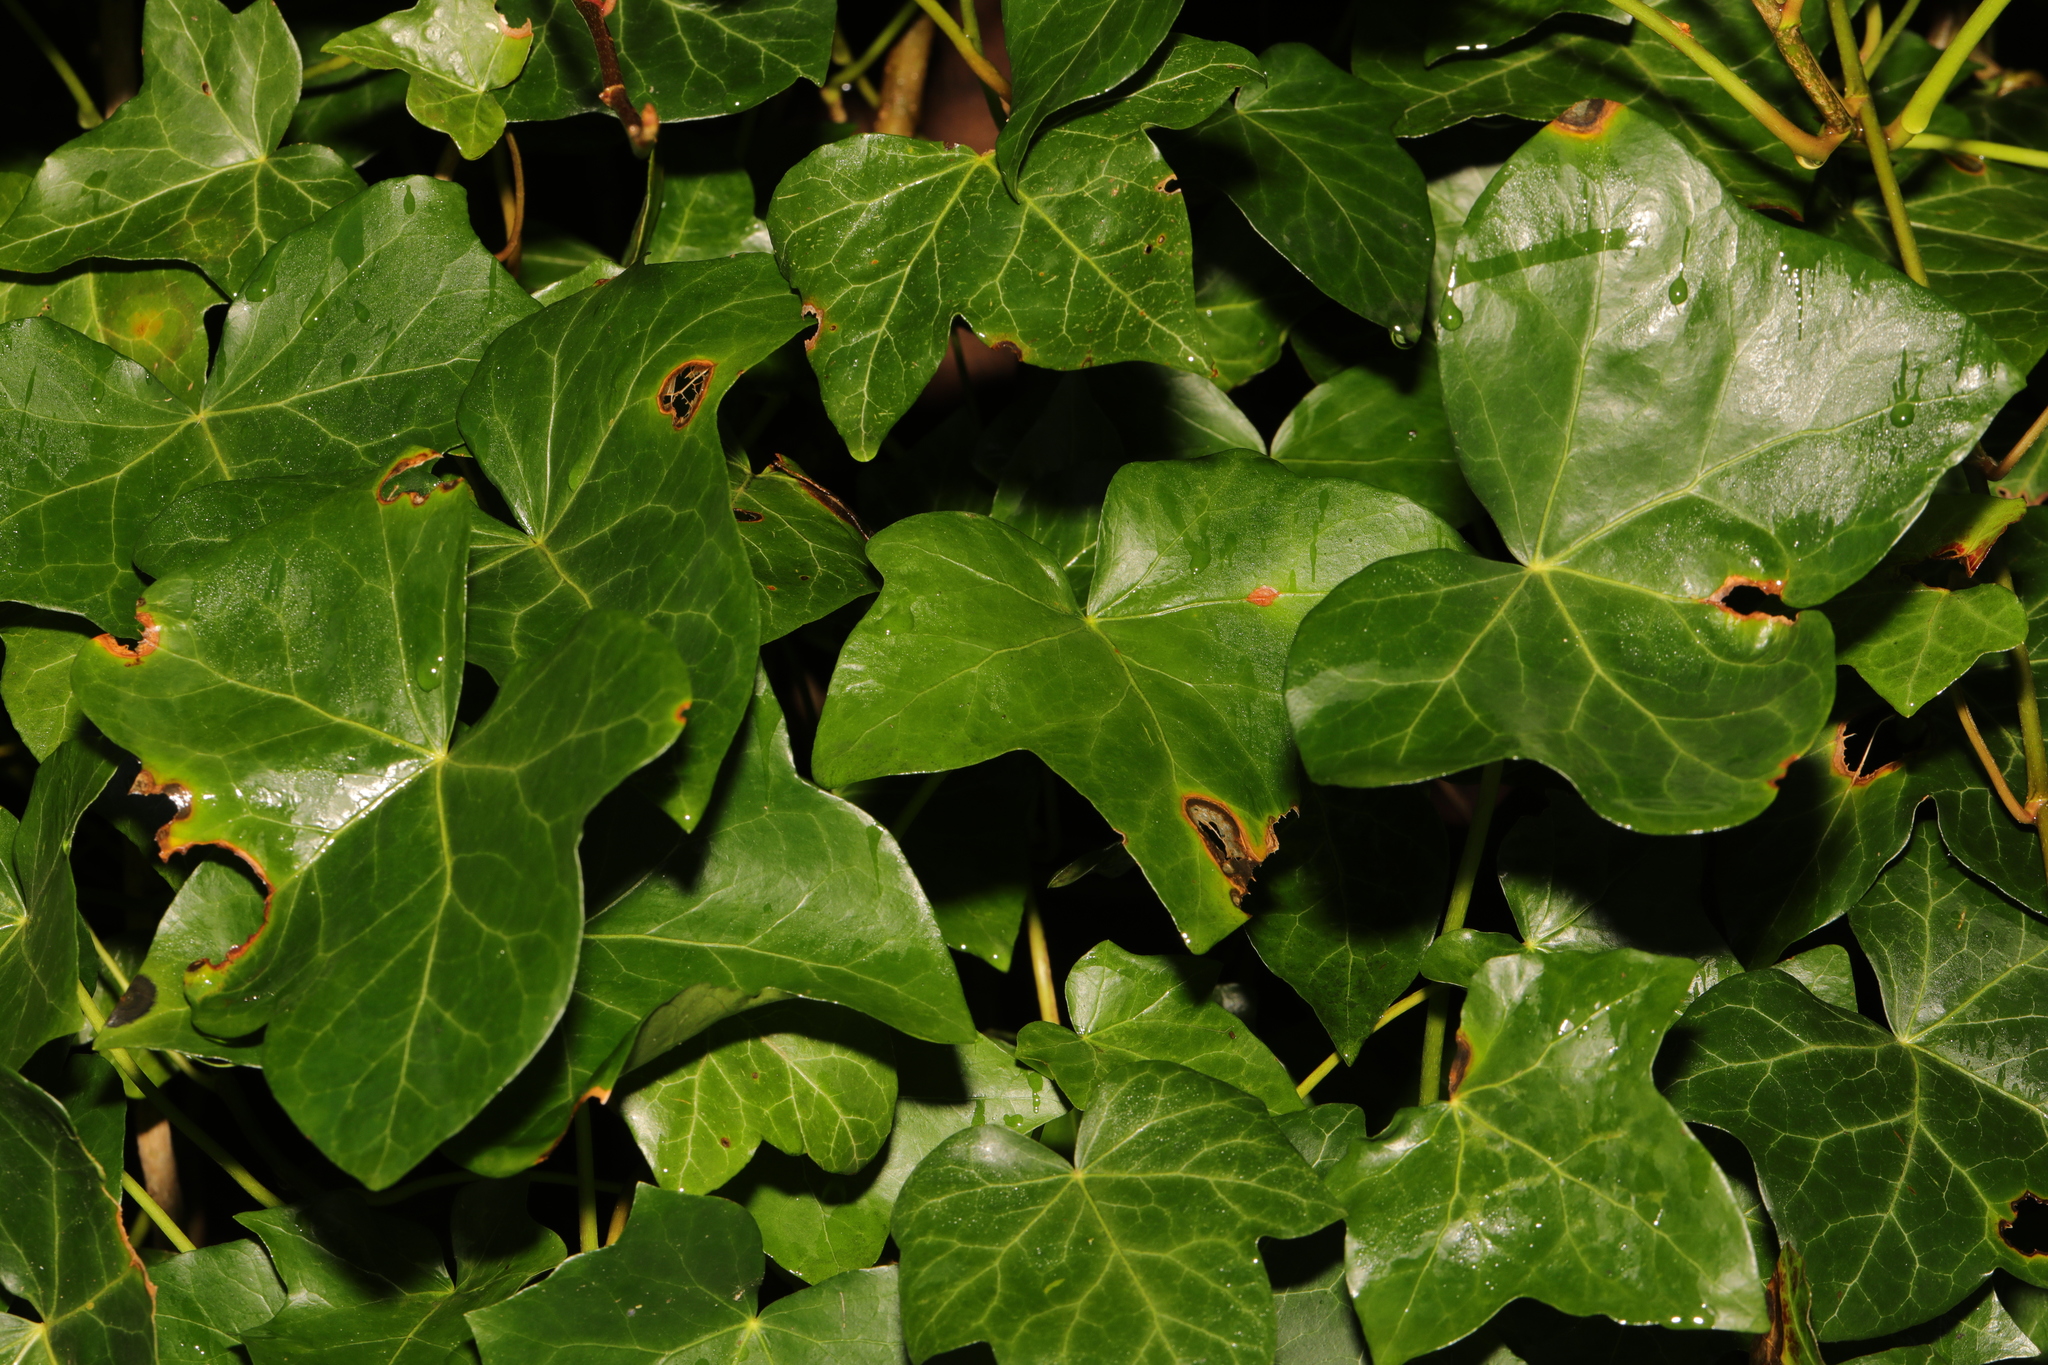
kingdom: Plantae
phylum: Tracheophyta
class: Magnoliopsida
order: Apiales
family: Araliaceae
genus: Hedera
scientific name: Hedera helix
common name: Ivy
